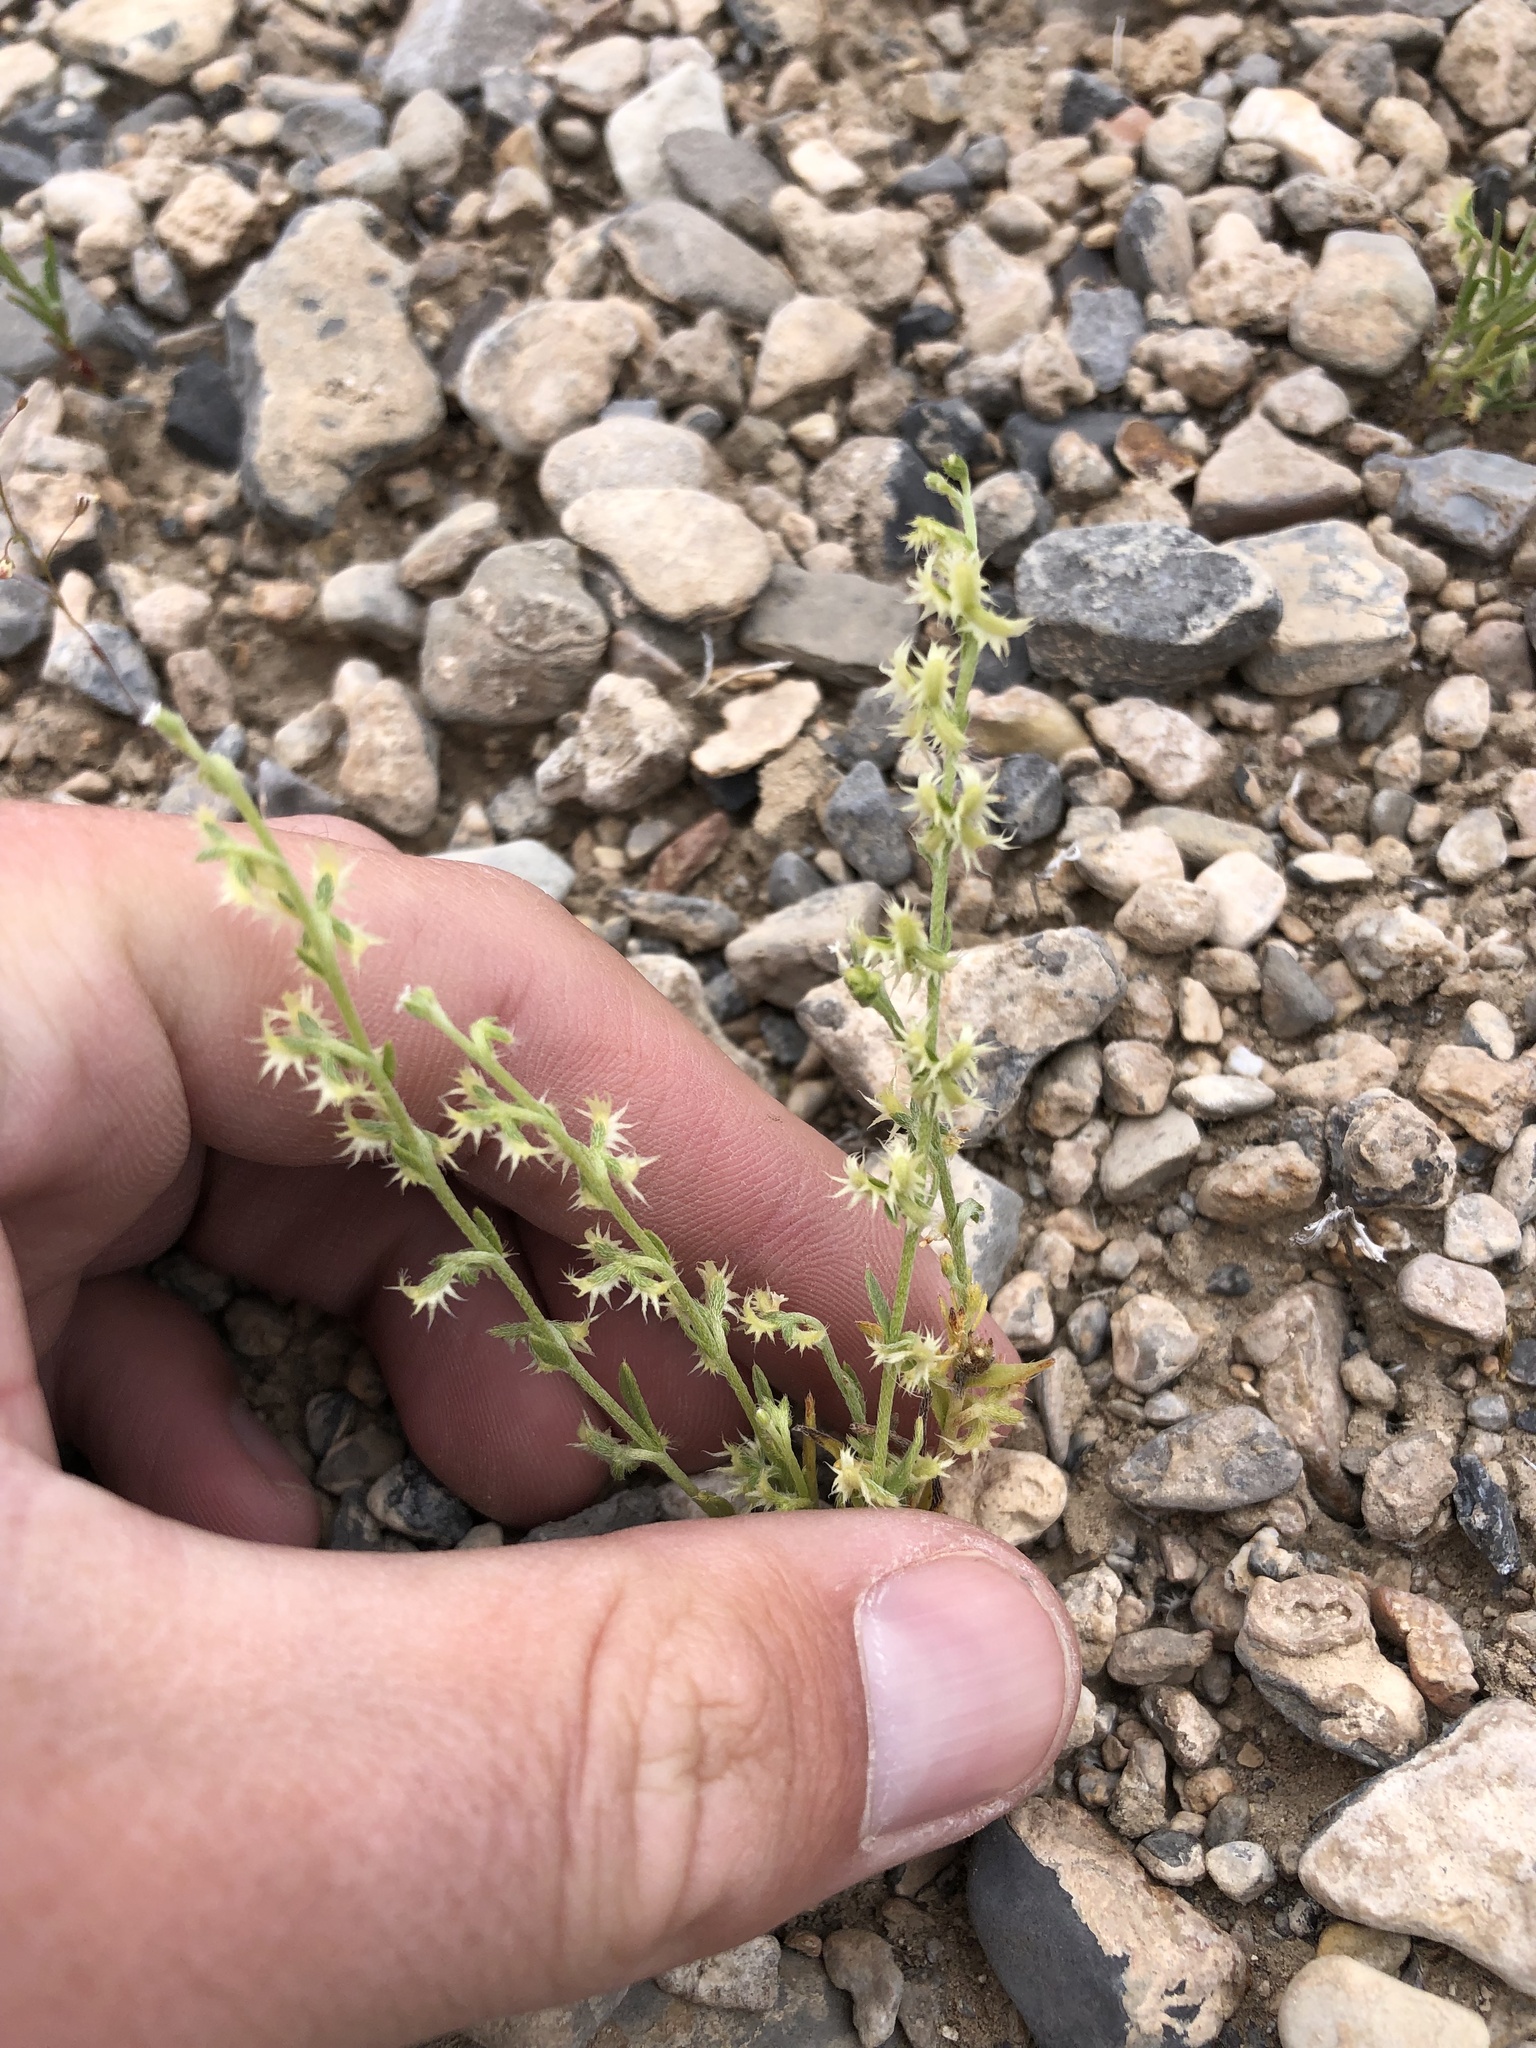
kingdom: Plantae
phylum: Tracheophyta
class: Magnoliopsida
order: Boraginales
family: Boraginaceae
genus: Pectocarya
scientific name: Pectocarya platycarpa
